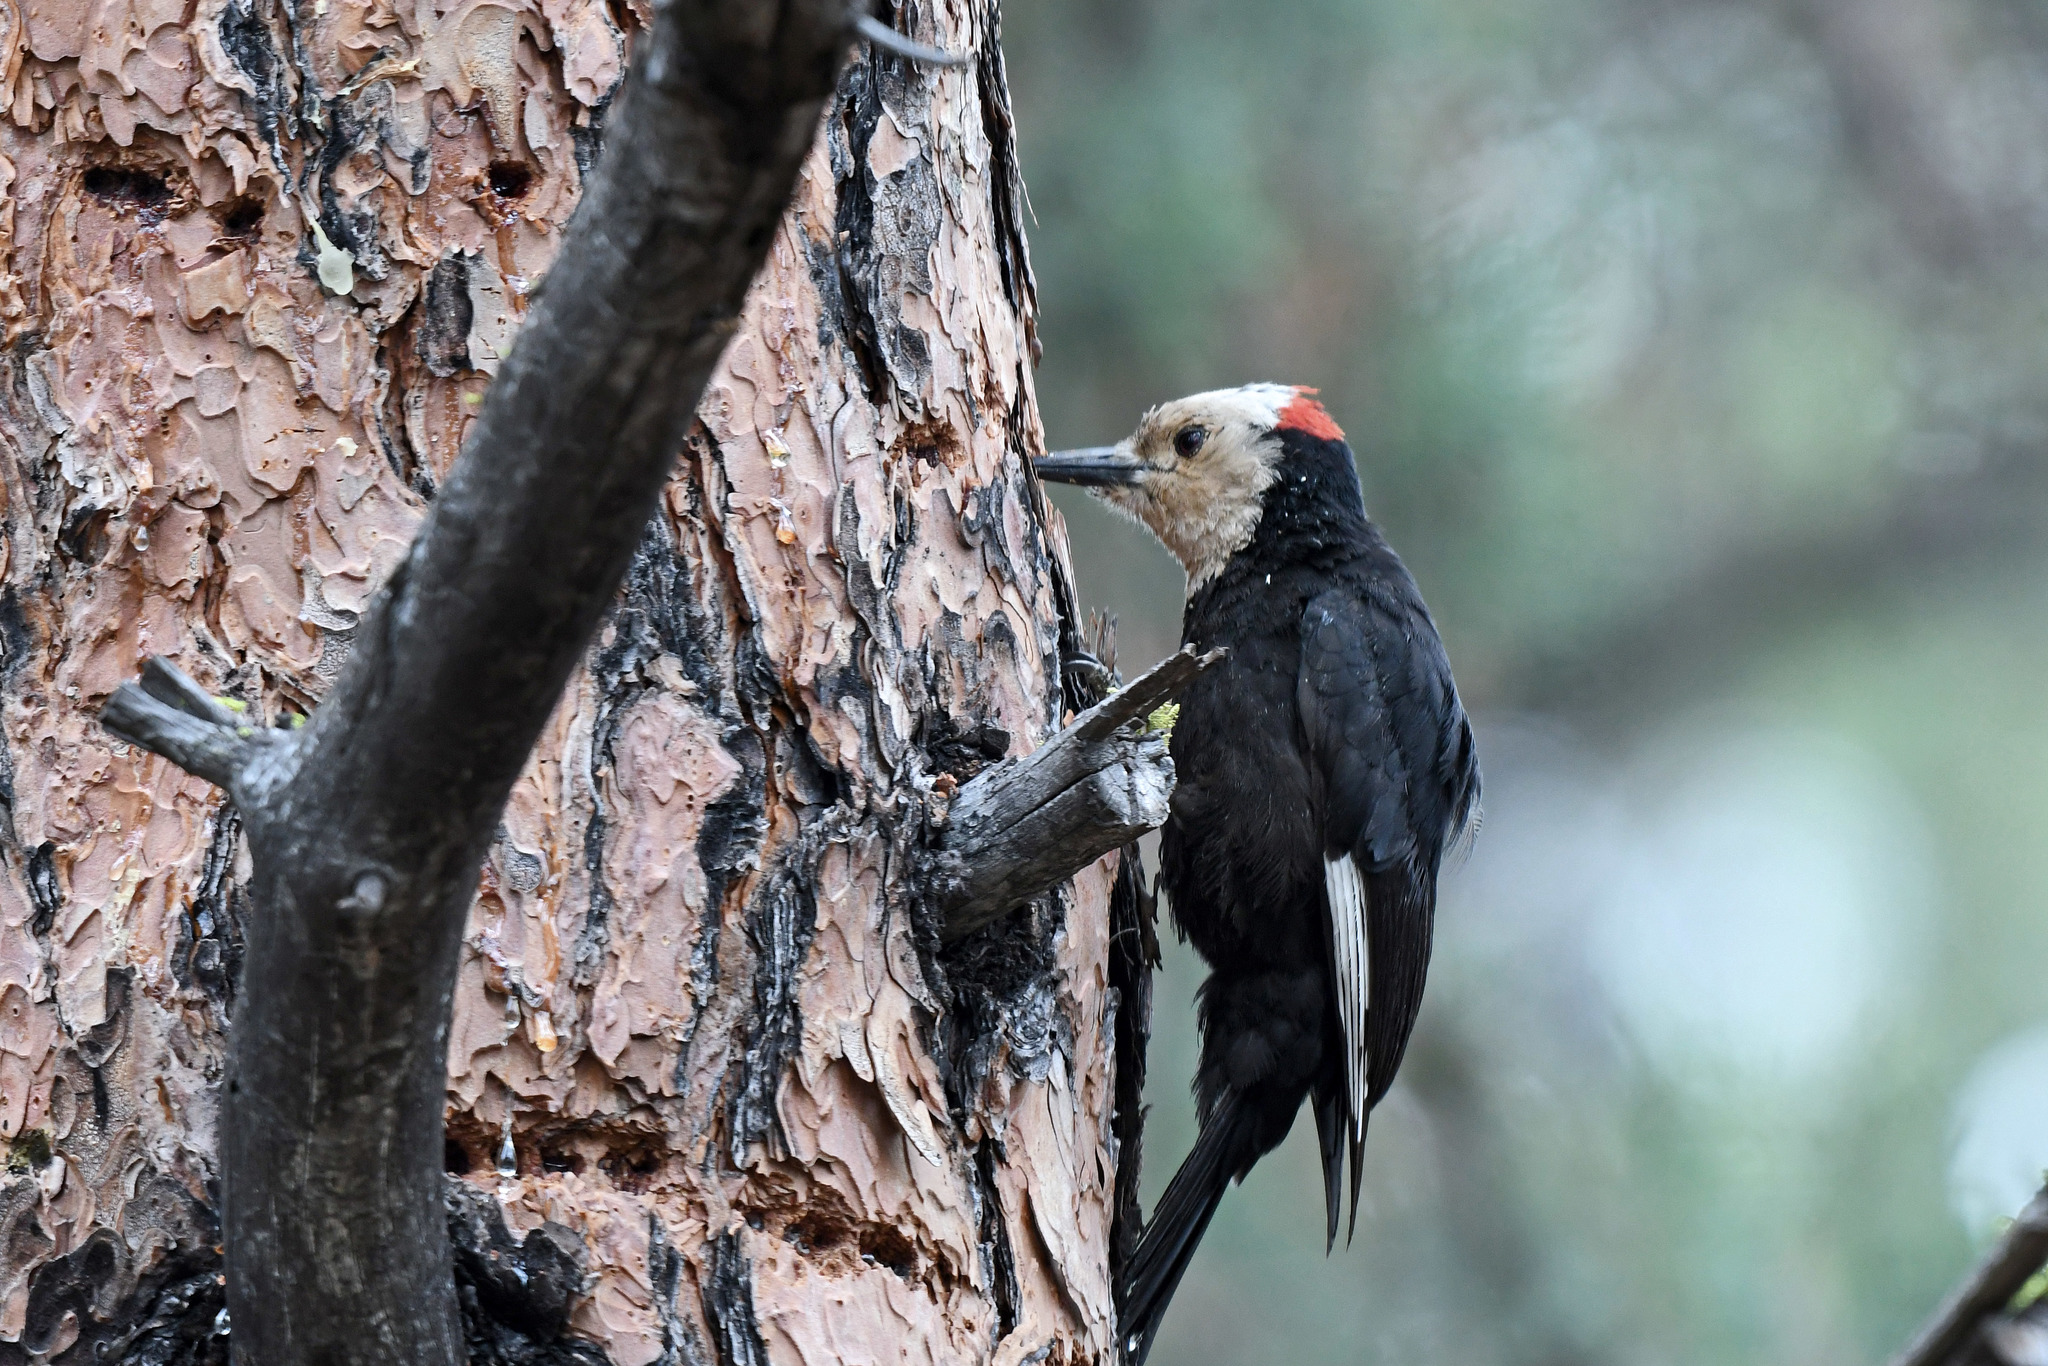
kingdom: Animalia
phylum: Chordata
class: Aves
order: Piciformes
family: Picidae
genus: Leuconotopicus
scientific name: Leuconotopicus albolarvatus
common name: White-headed woodpecker
